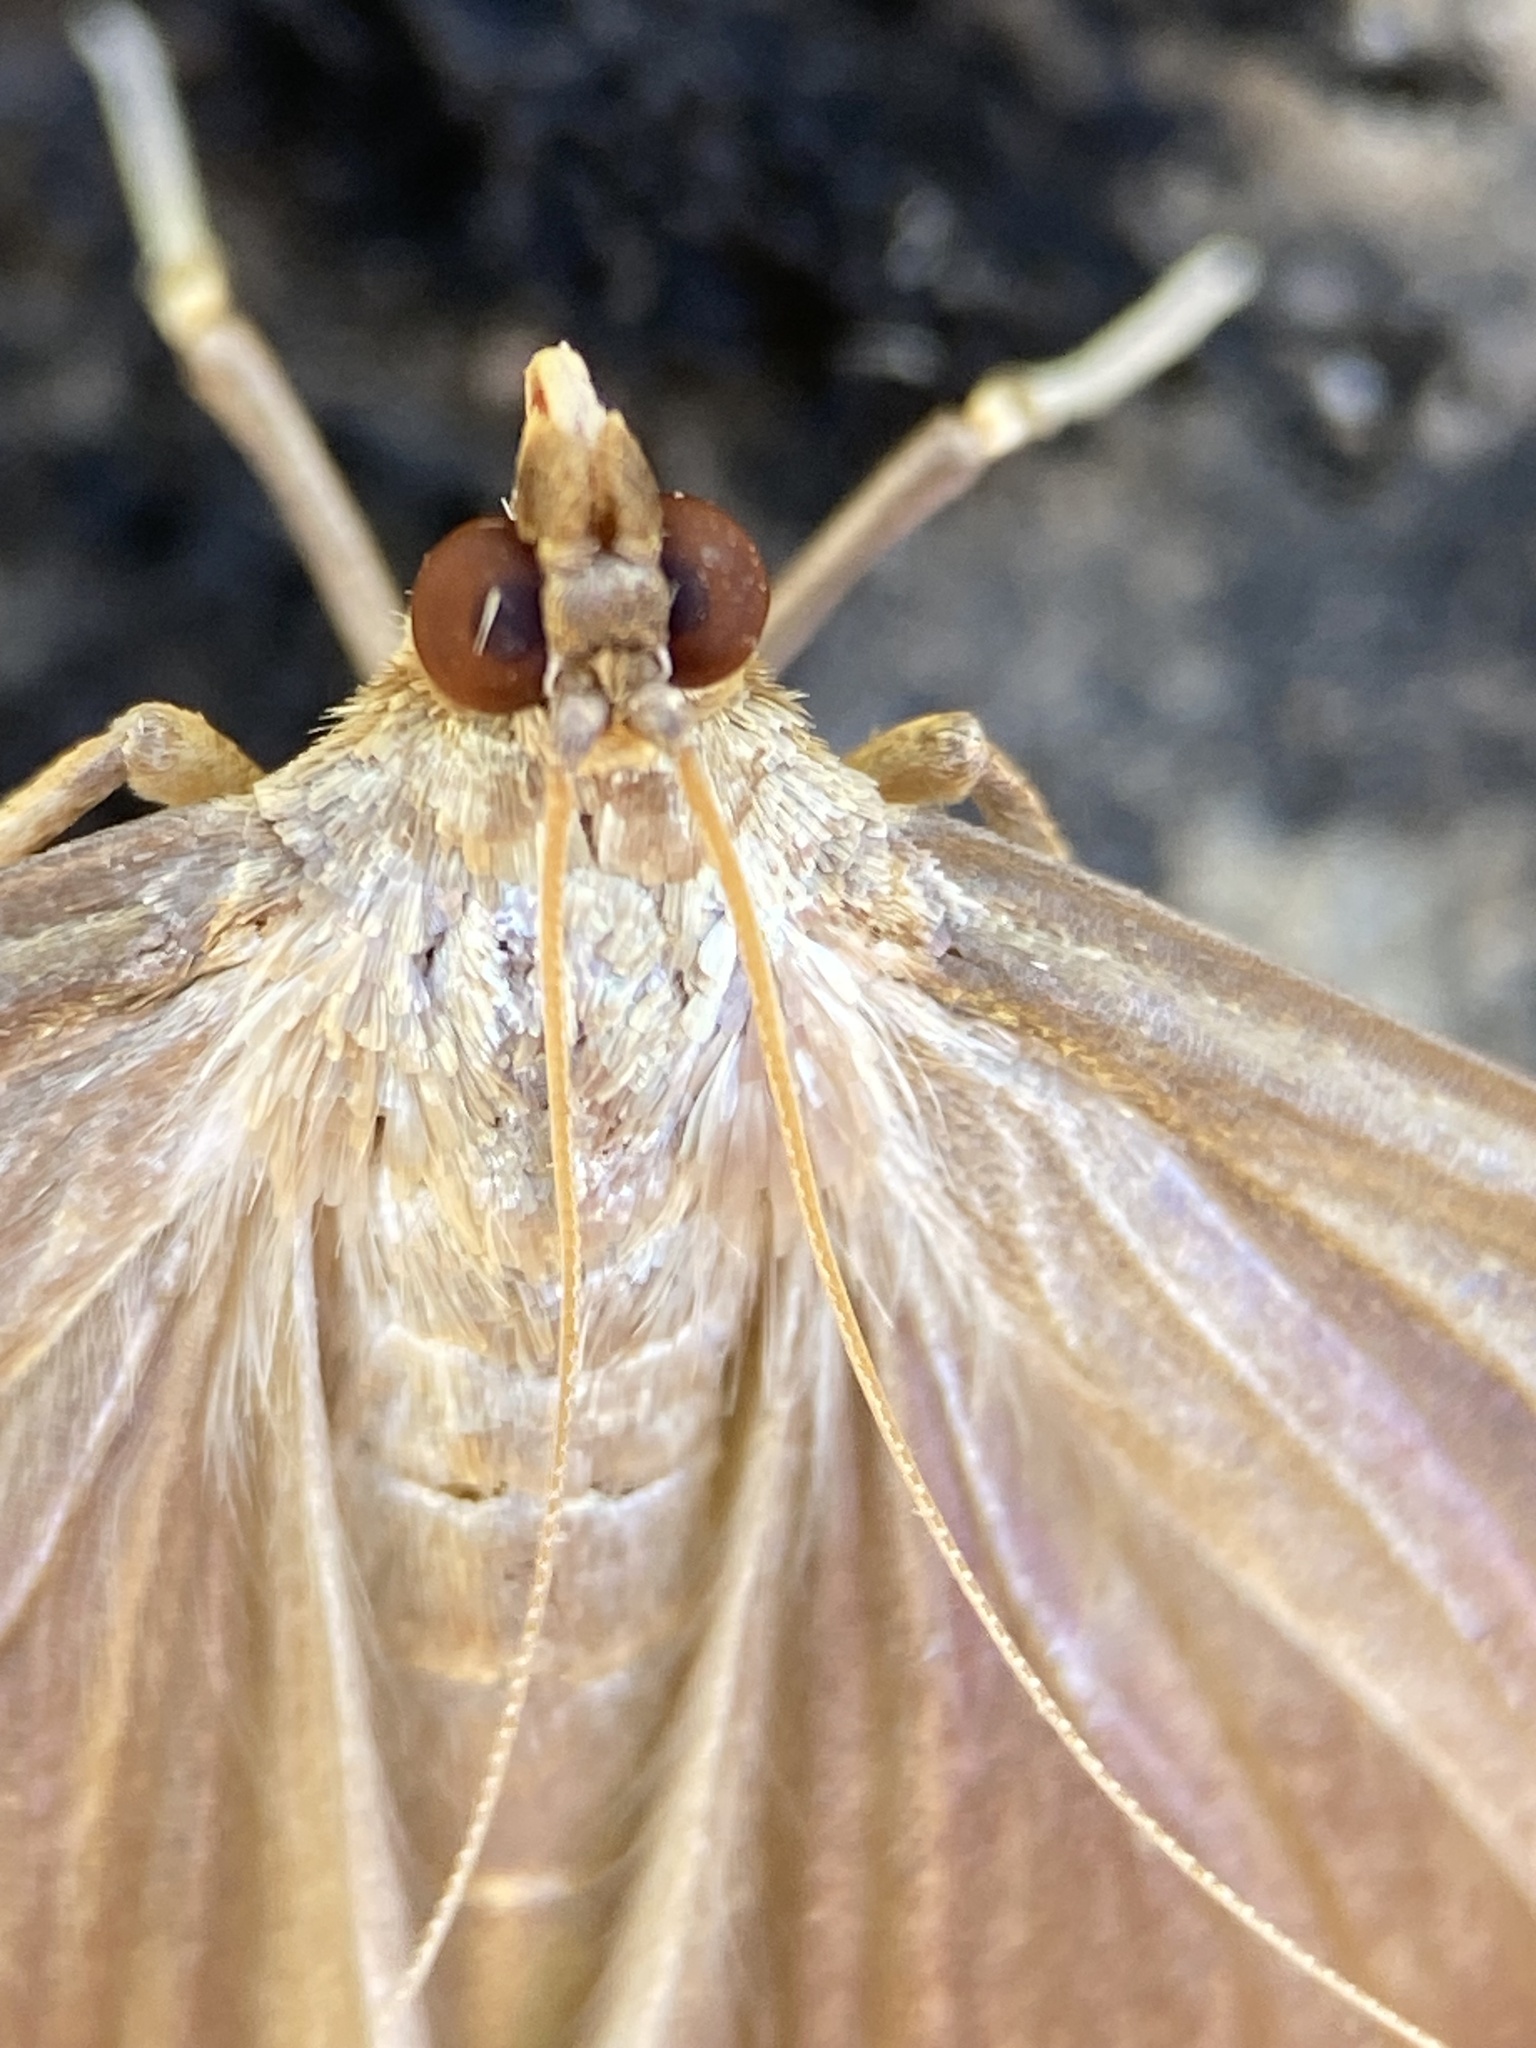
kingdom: Animalia
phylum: Arthropoda
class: Insecta
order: Lepidoptera
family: Crambidae
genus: Cydalima
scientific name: Cydalima perspectalis
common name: Box tree moth
